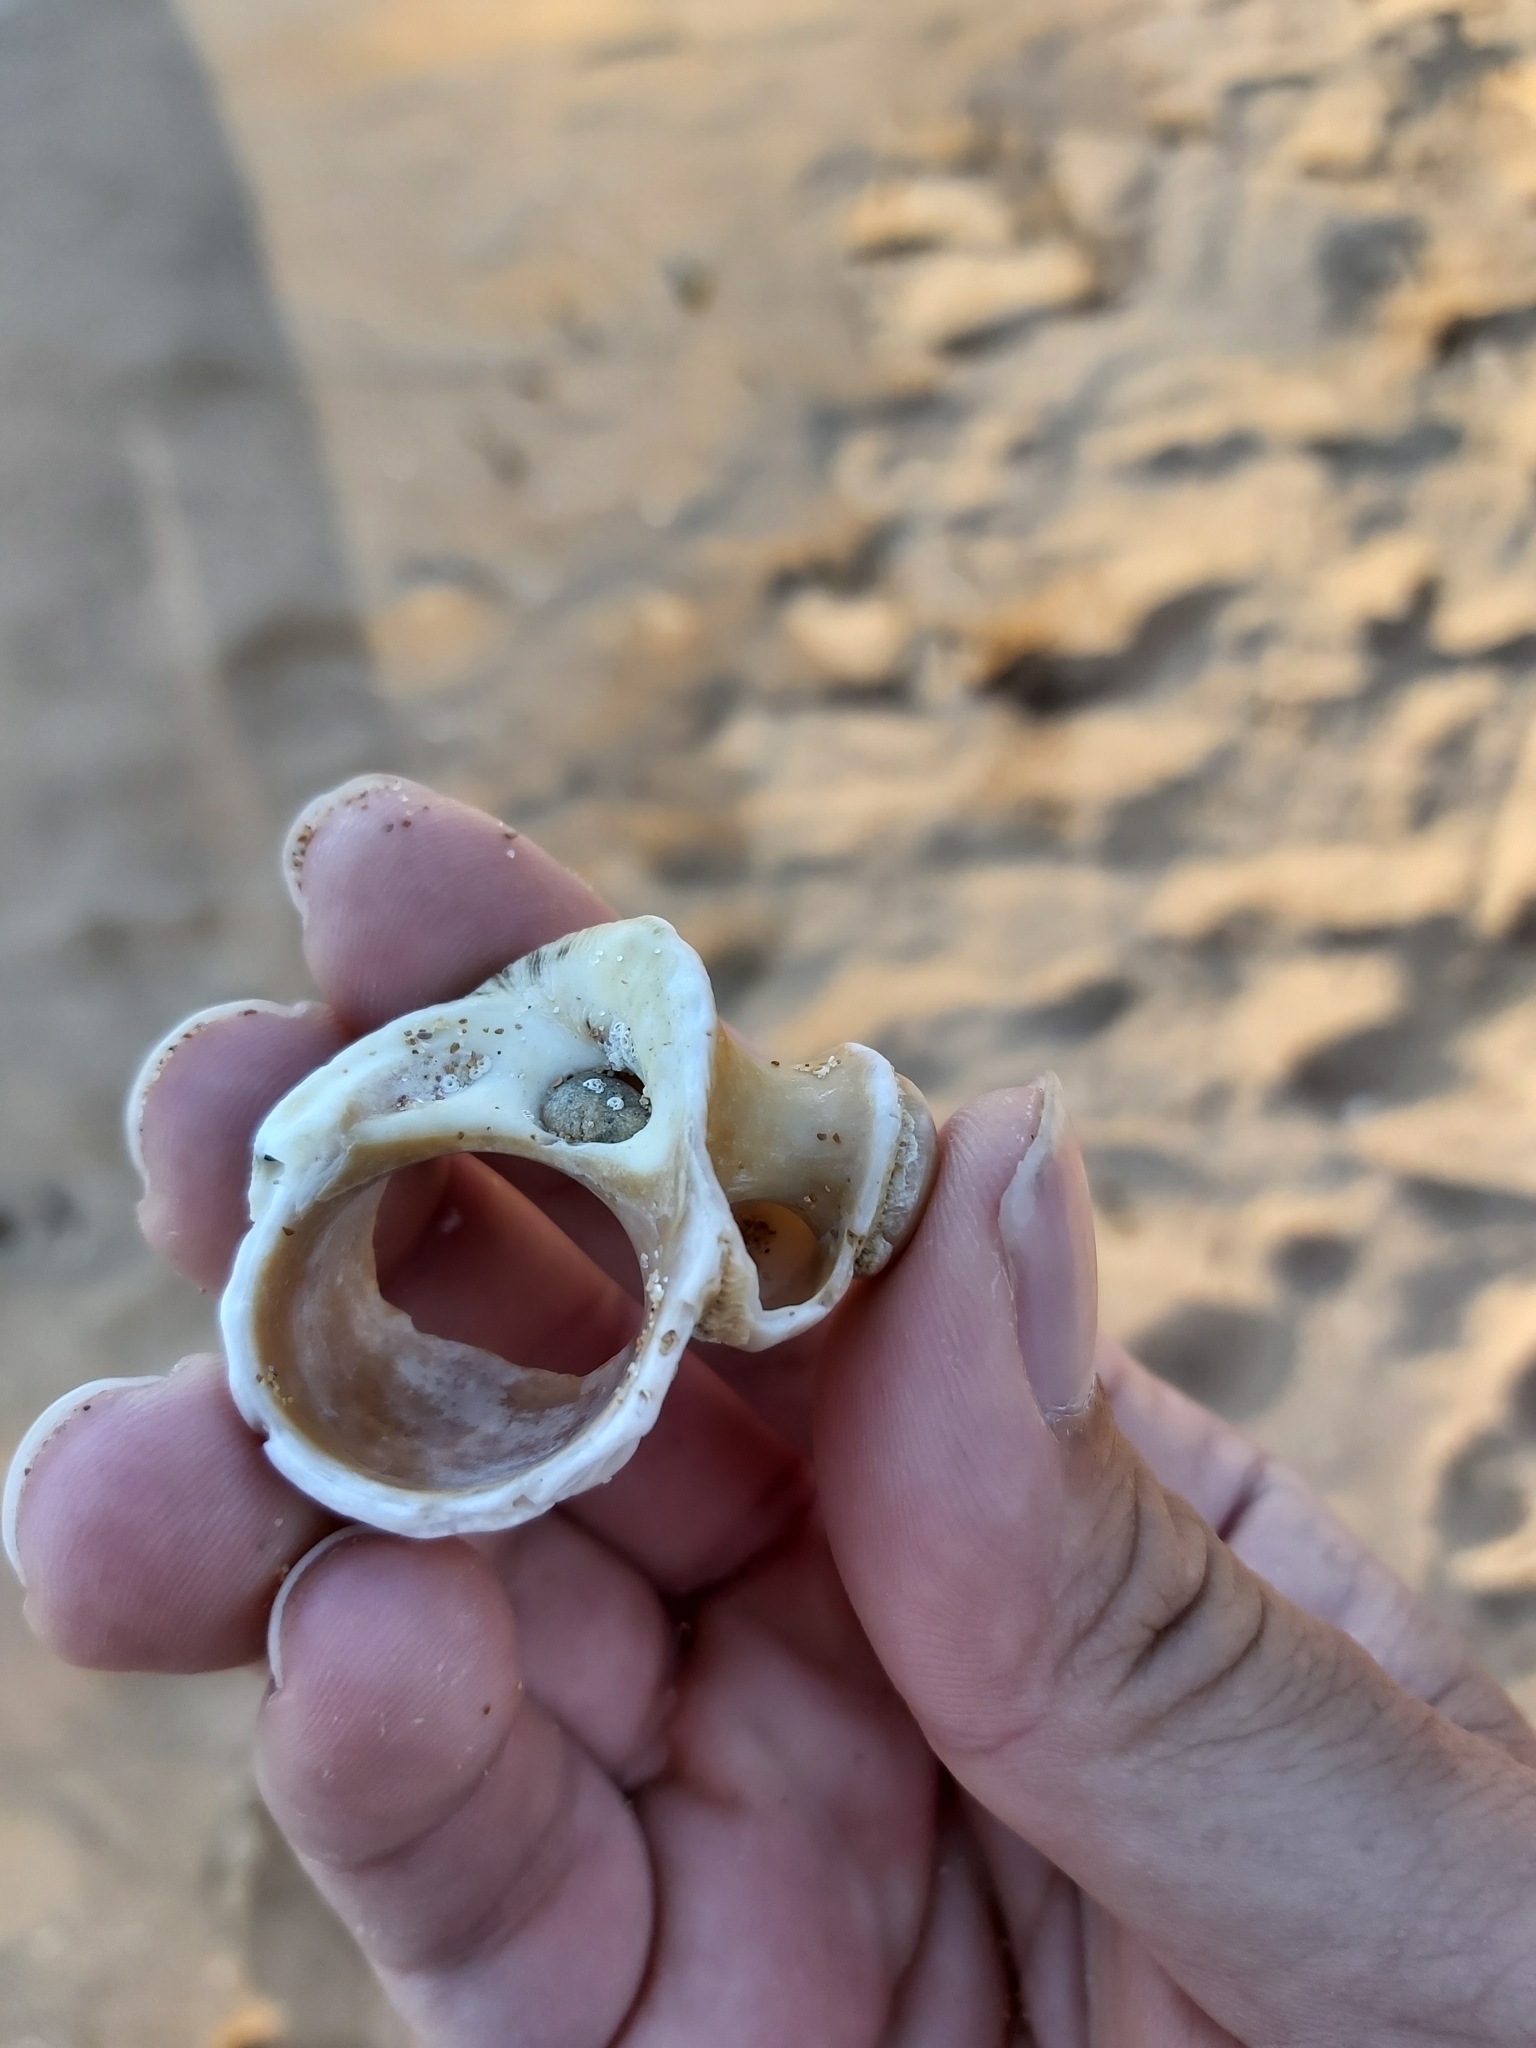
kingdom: Animalia
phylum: Mollusca
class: Gastropoda
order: Trochida
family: Turbinidae
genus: Lunella
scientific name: Lunella torquata
